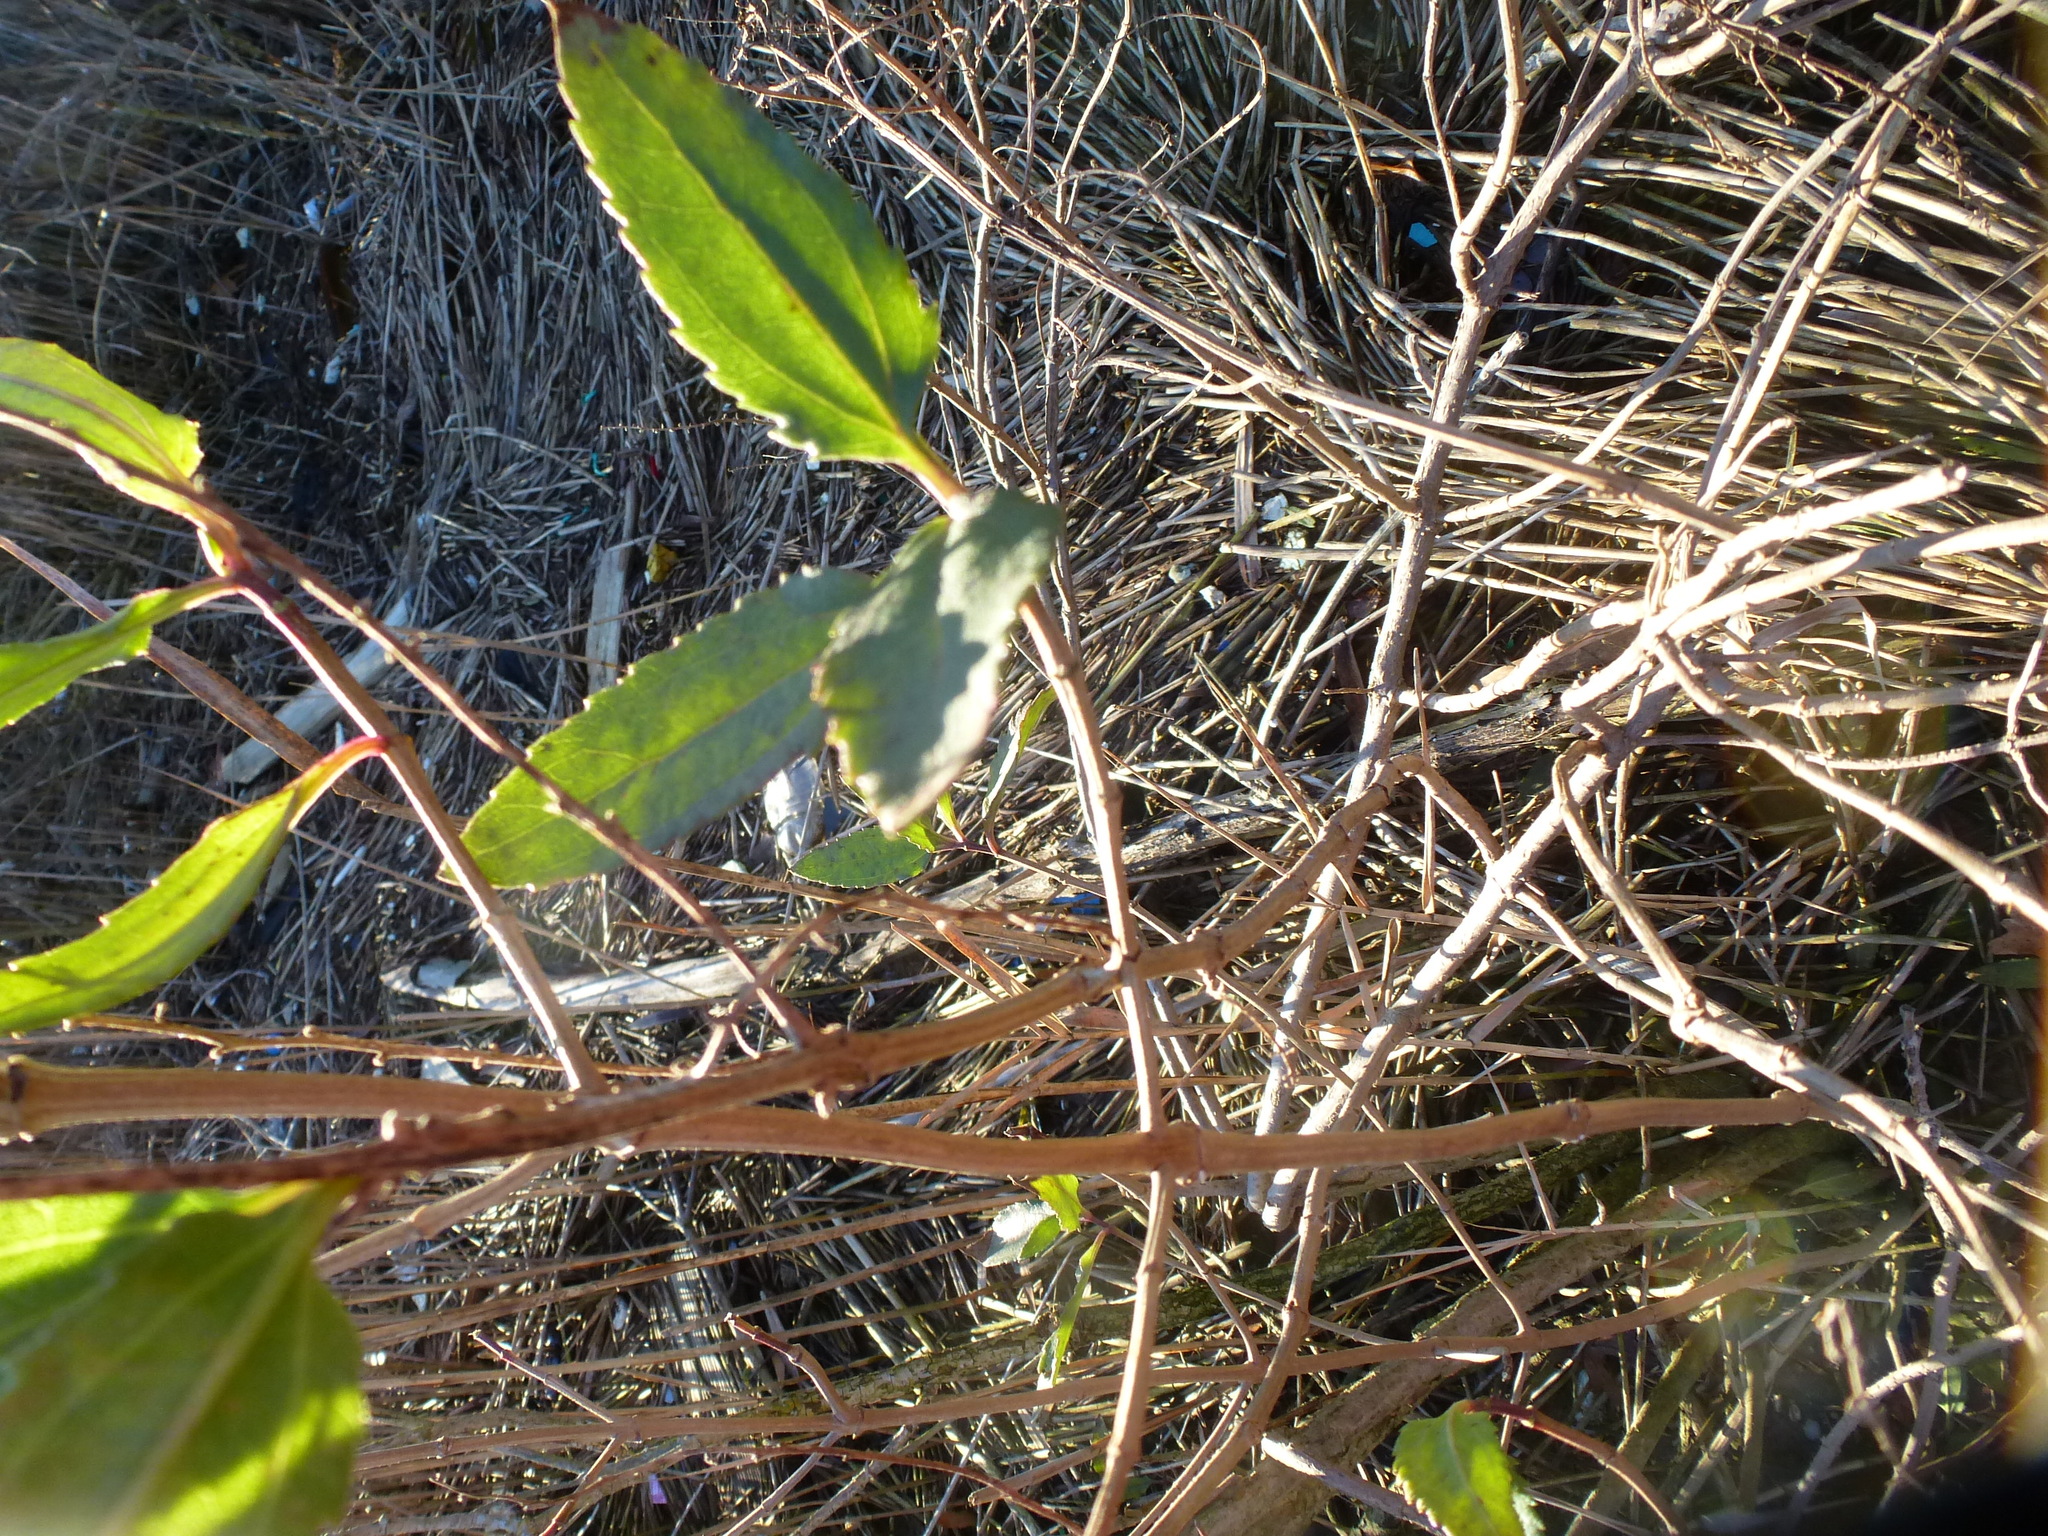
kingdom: Plantae
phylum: Tracheophyta
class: Magnoliopsida
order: Asterales
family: Asteraceae
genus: Iva
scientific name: Iva frutescens
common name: Big-leaved marsh-elder
